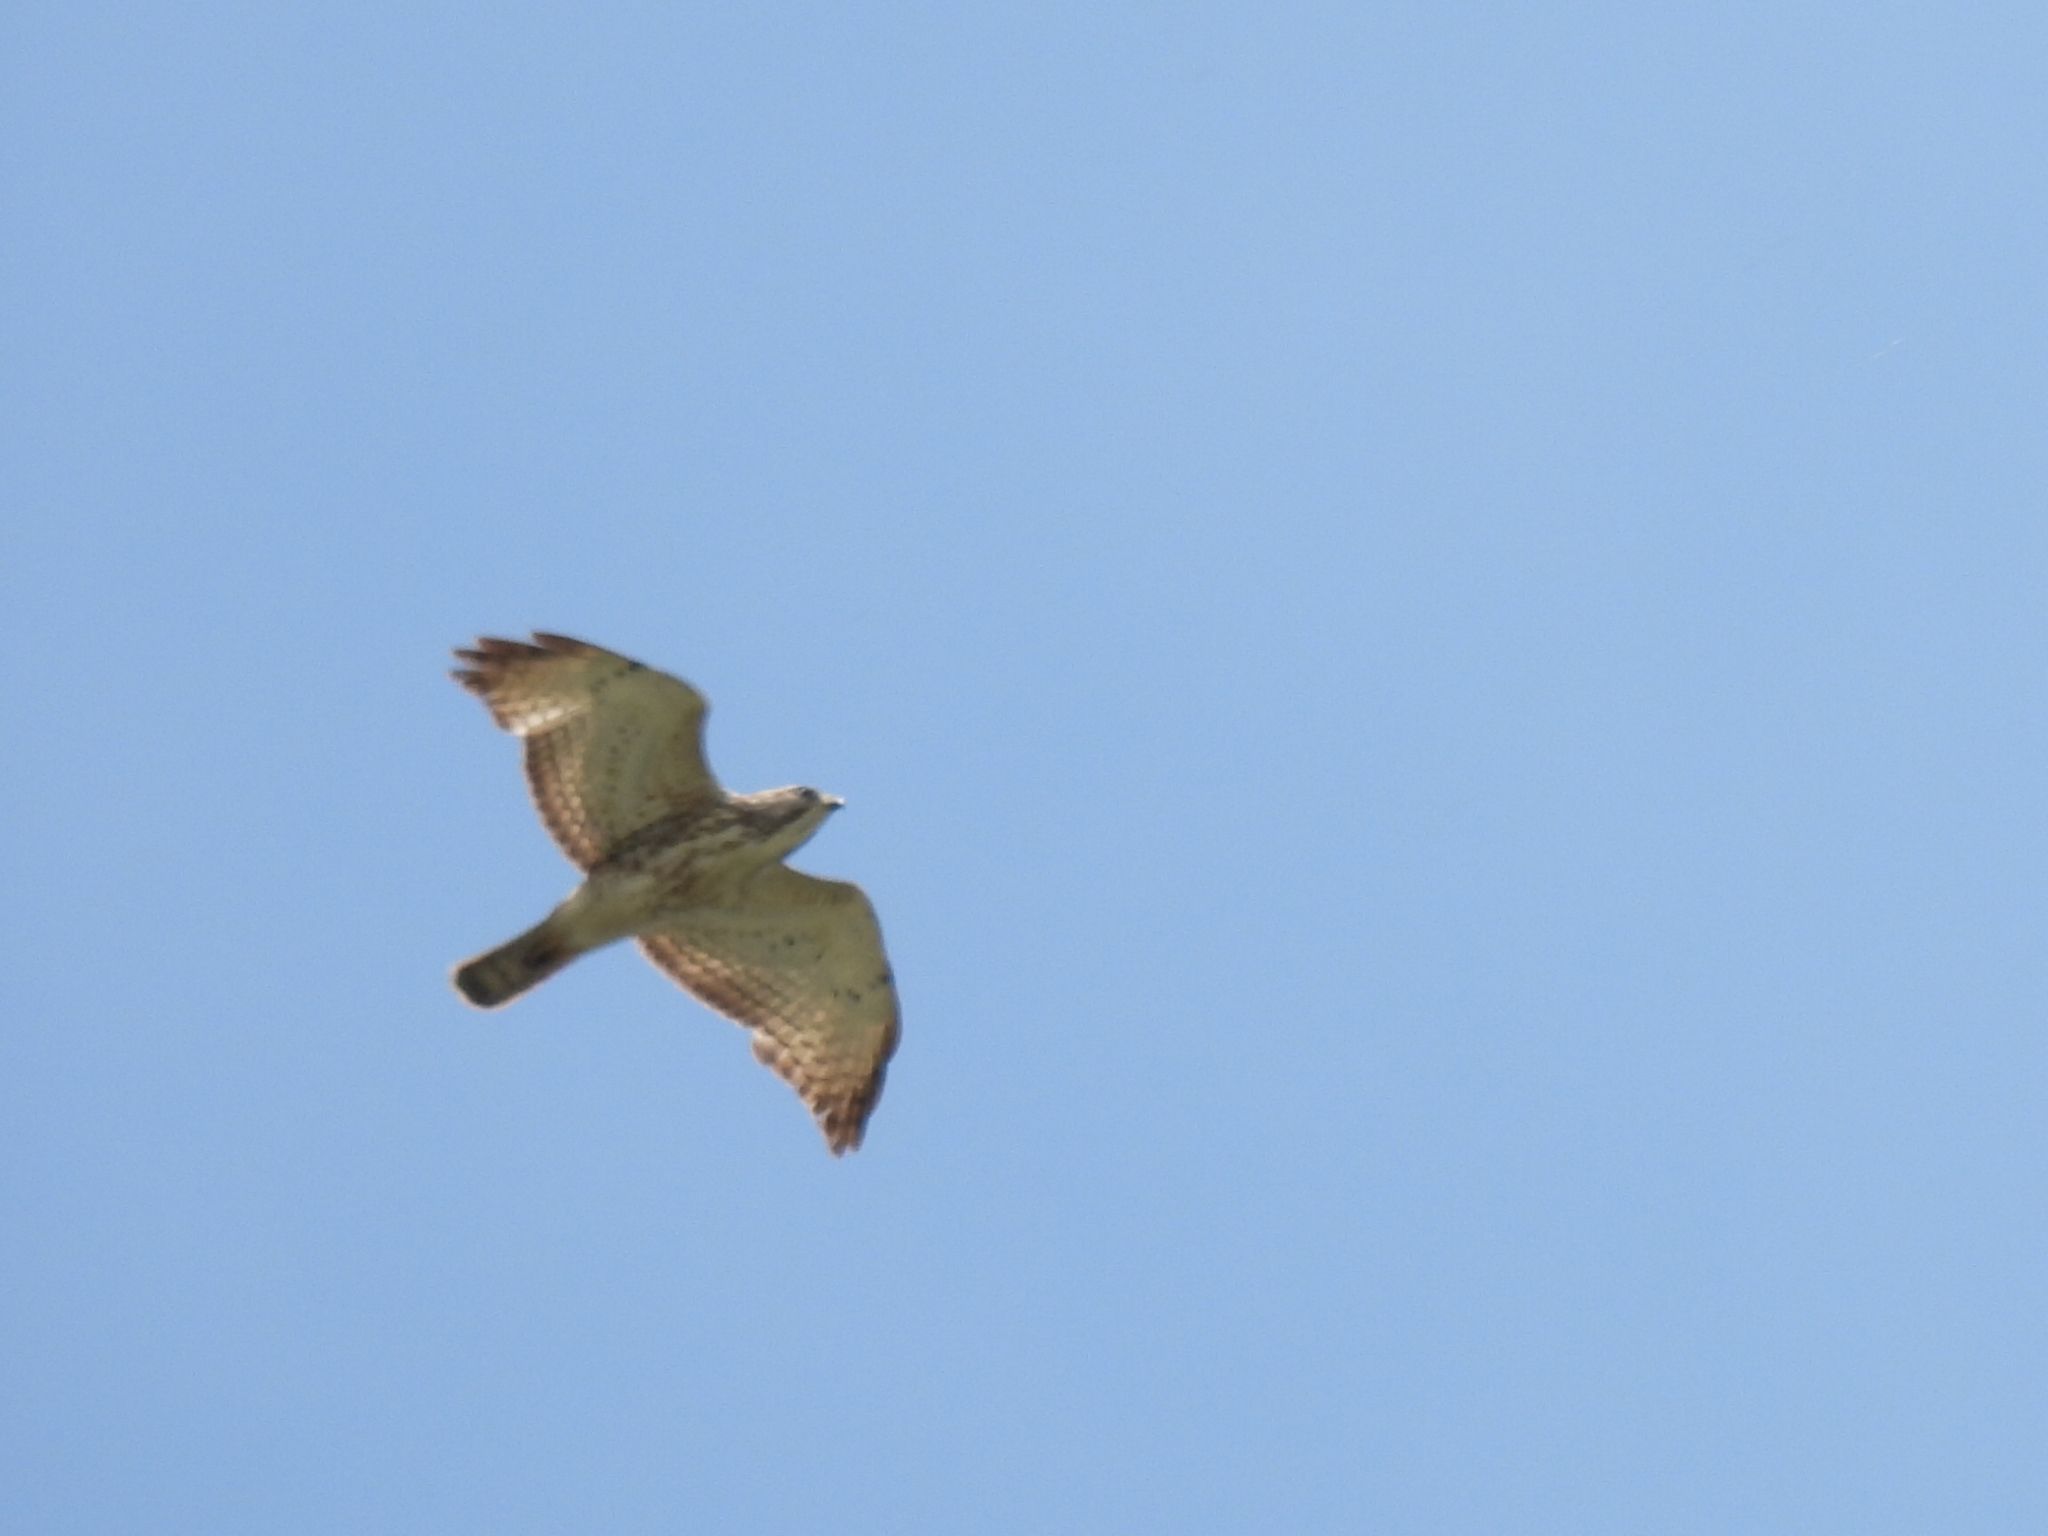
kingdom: Animalia
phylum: Chordata
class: Aves
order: Accipitriformes
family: Accipitridae
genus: Buteo
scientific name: Buteo platypterus
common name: Broad-winged hawk
